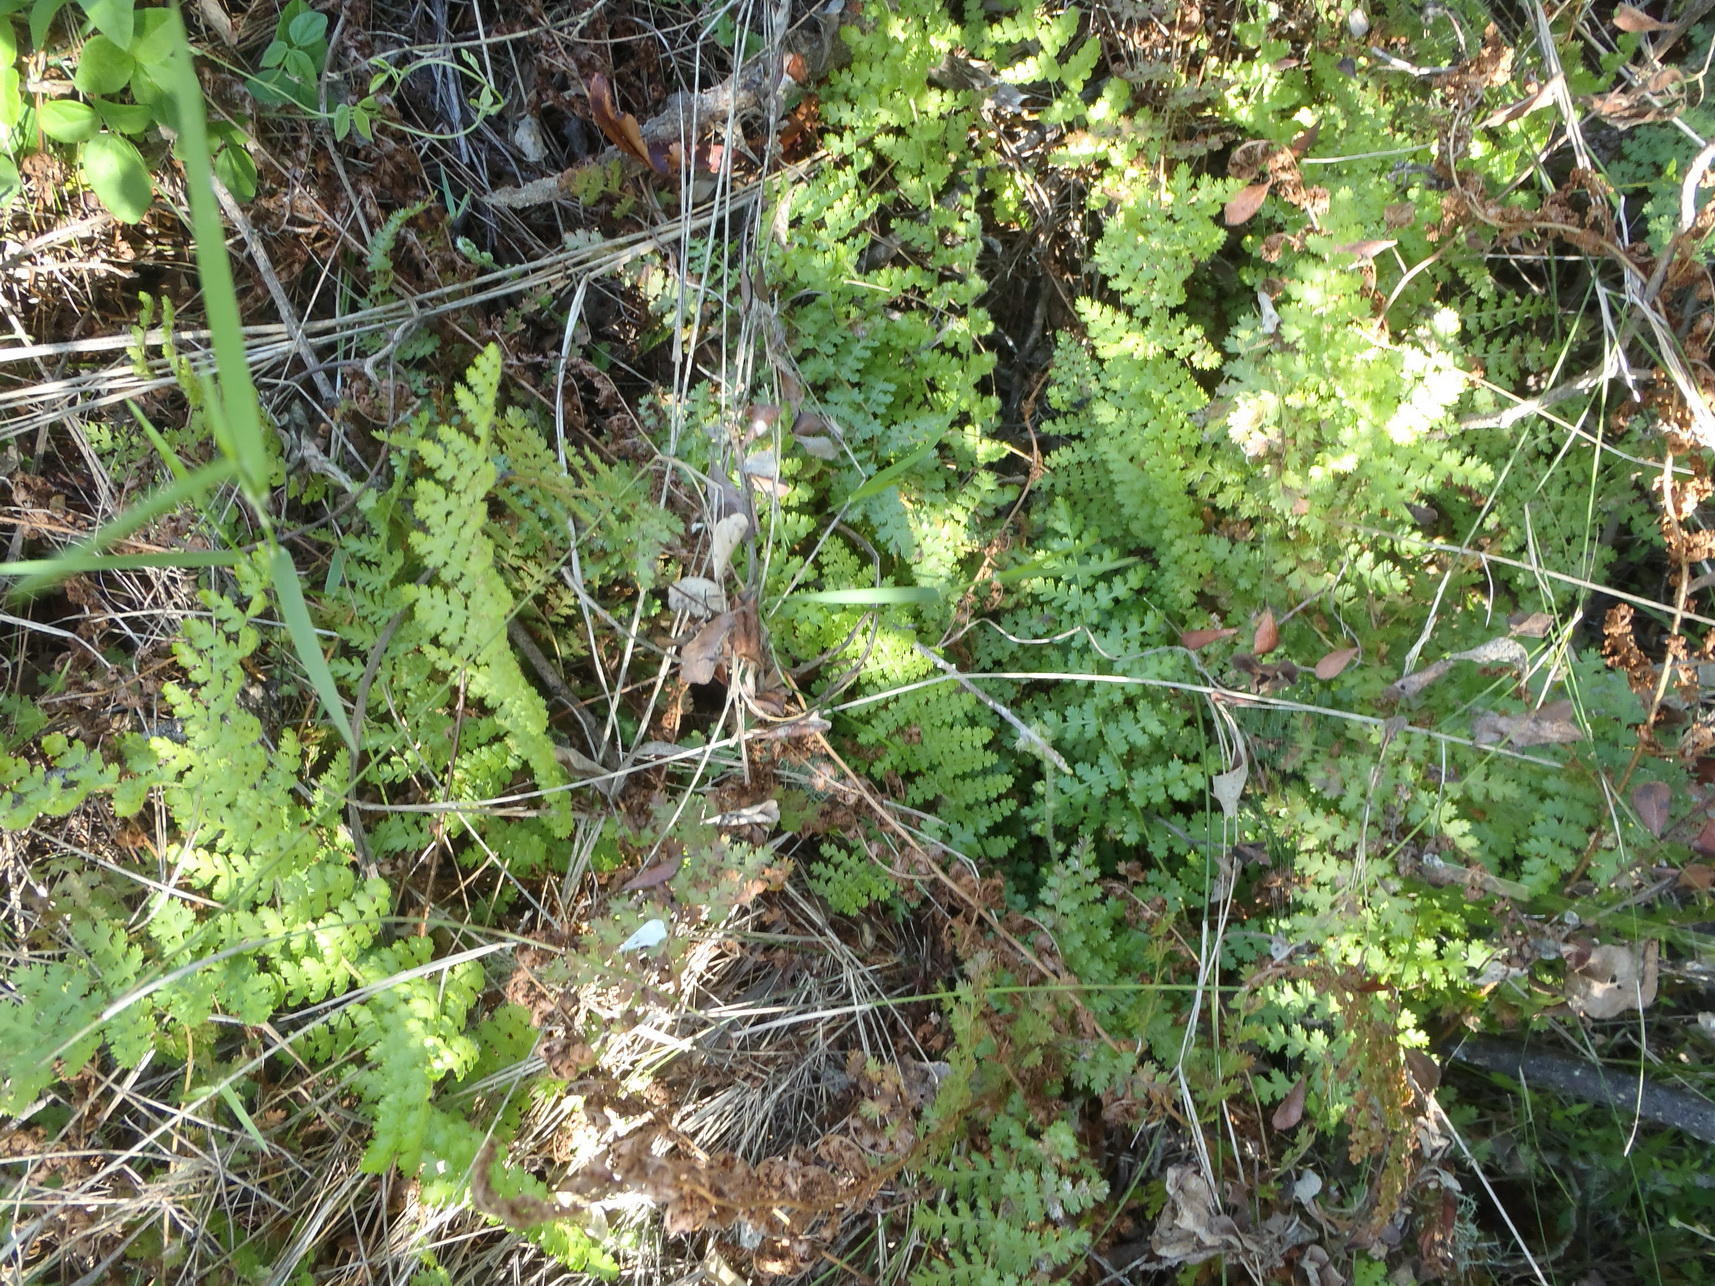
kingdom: Plantae
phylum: Tracheophyta
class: Polypodiopsida
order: Schizaeales
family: Anemiaceae
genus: Anemia
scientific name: Anemia caffrorum
